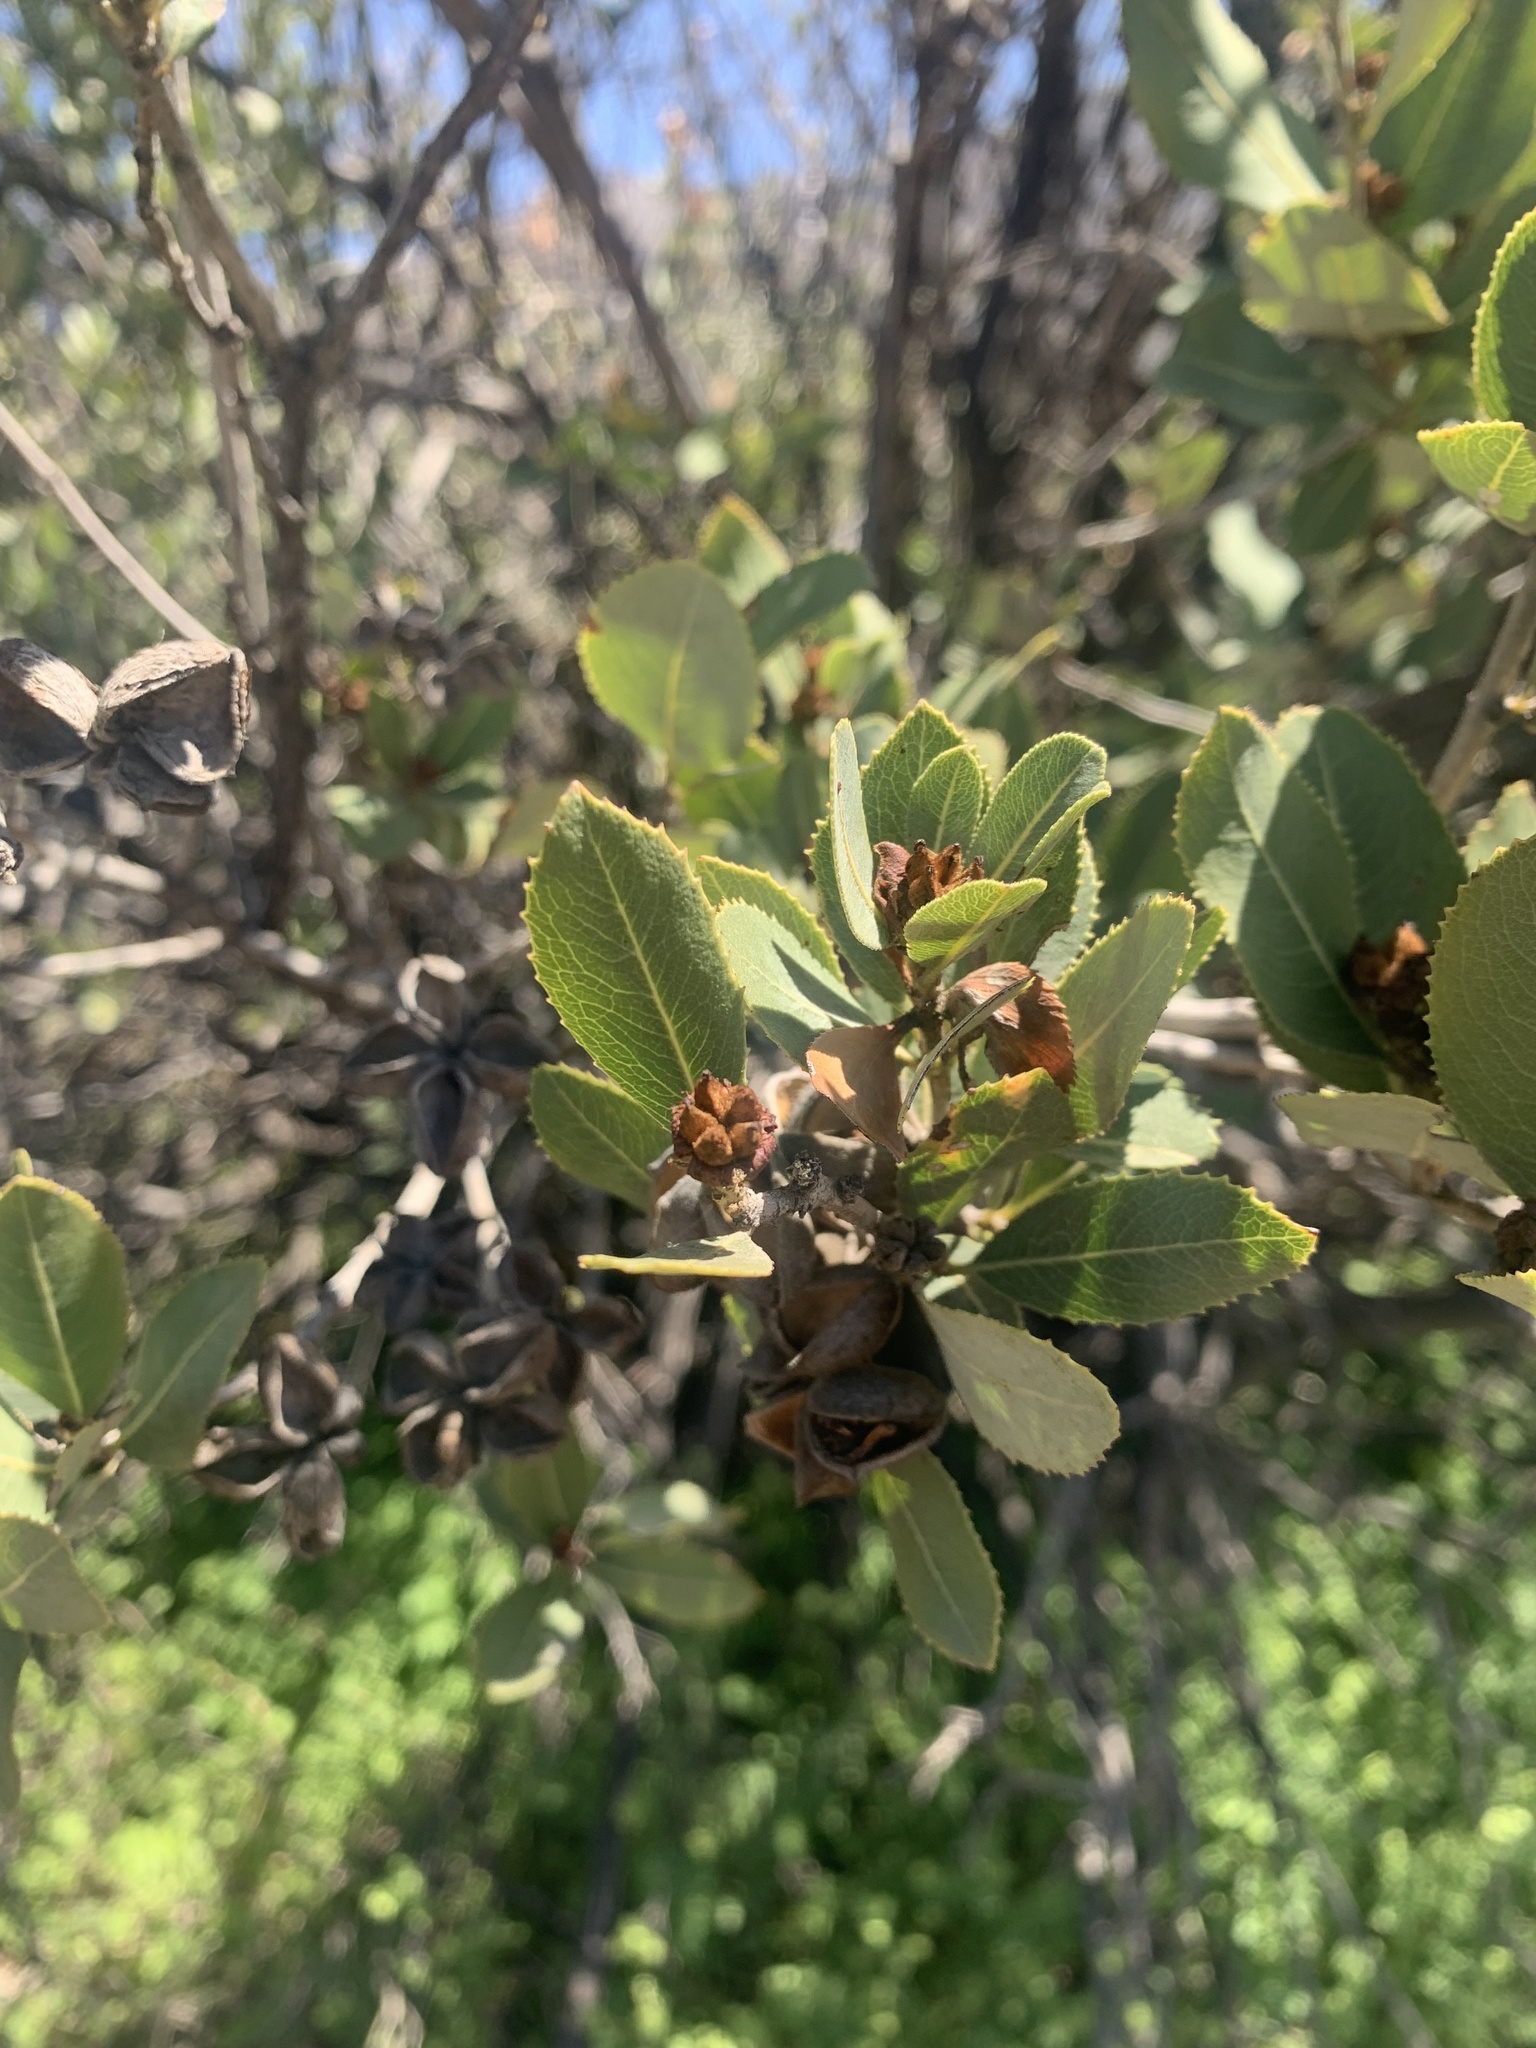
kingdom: Plantae
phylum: Tracheophyta
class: Magnoliopsida
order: Rosales
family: Rosaceae
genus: Kageneckia
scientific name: Kageneckia oblonga
